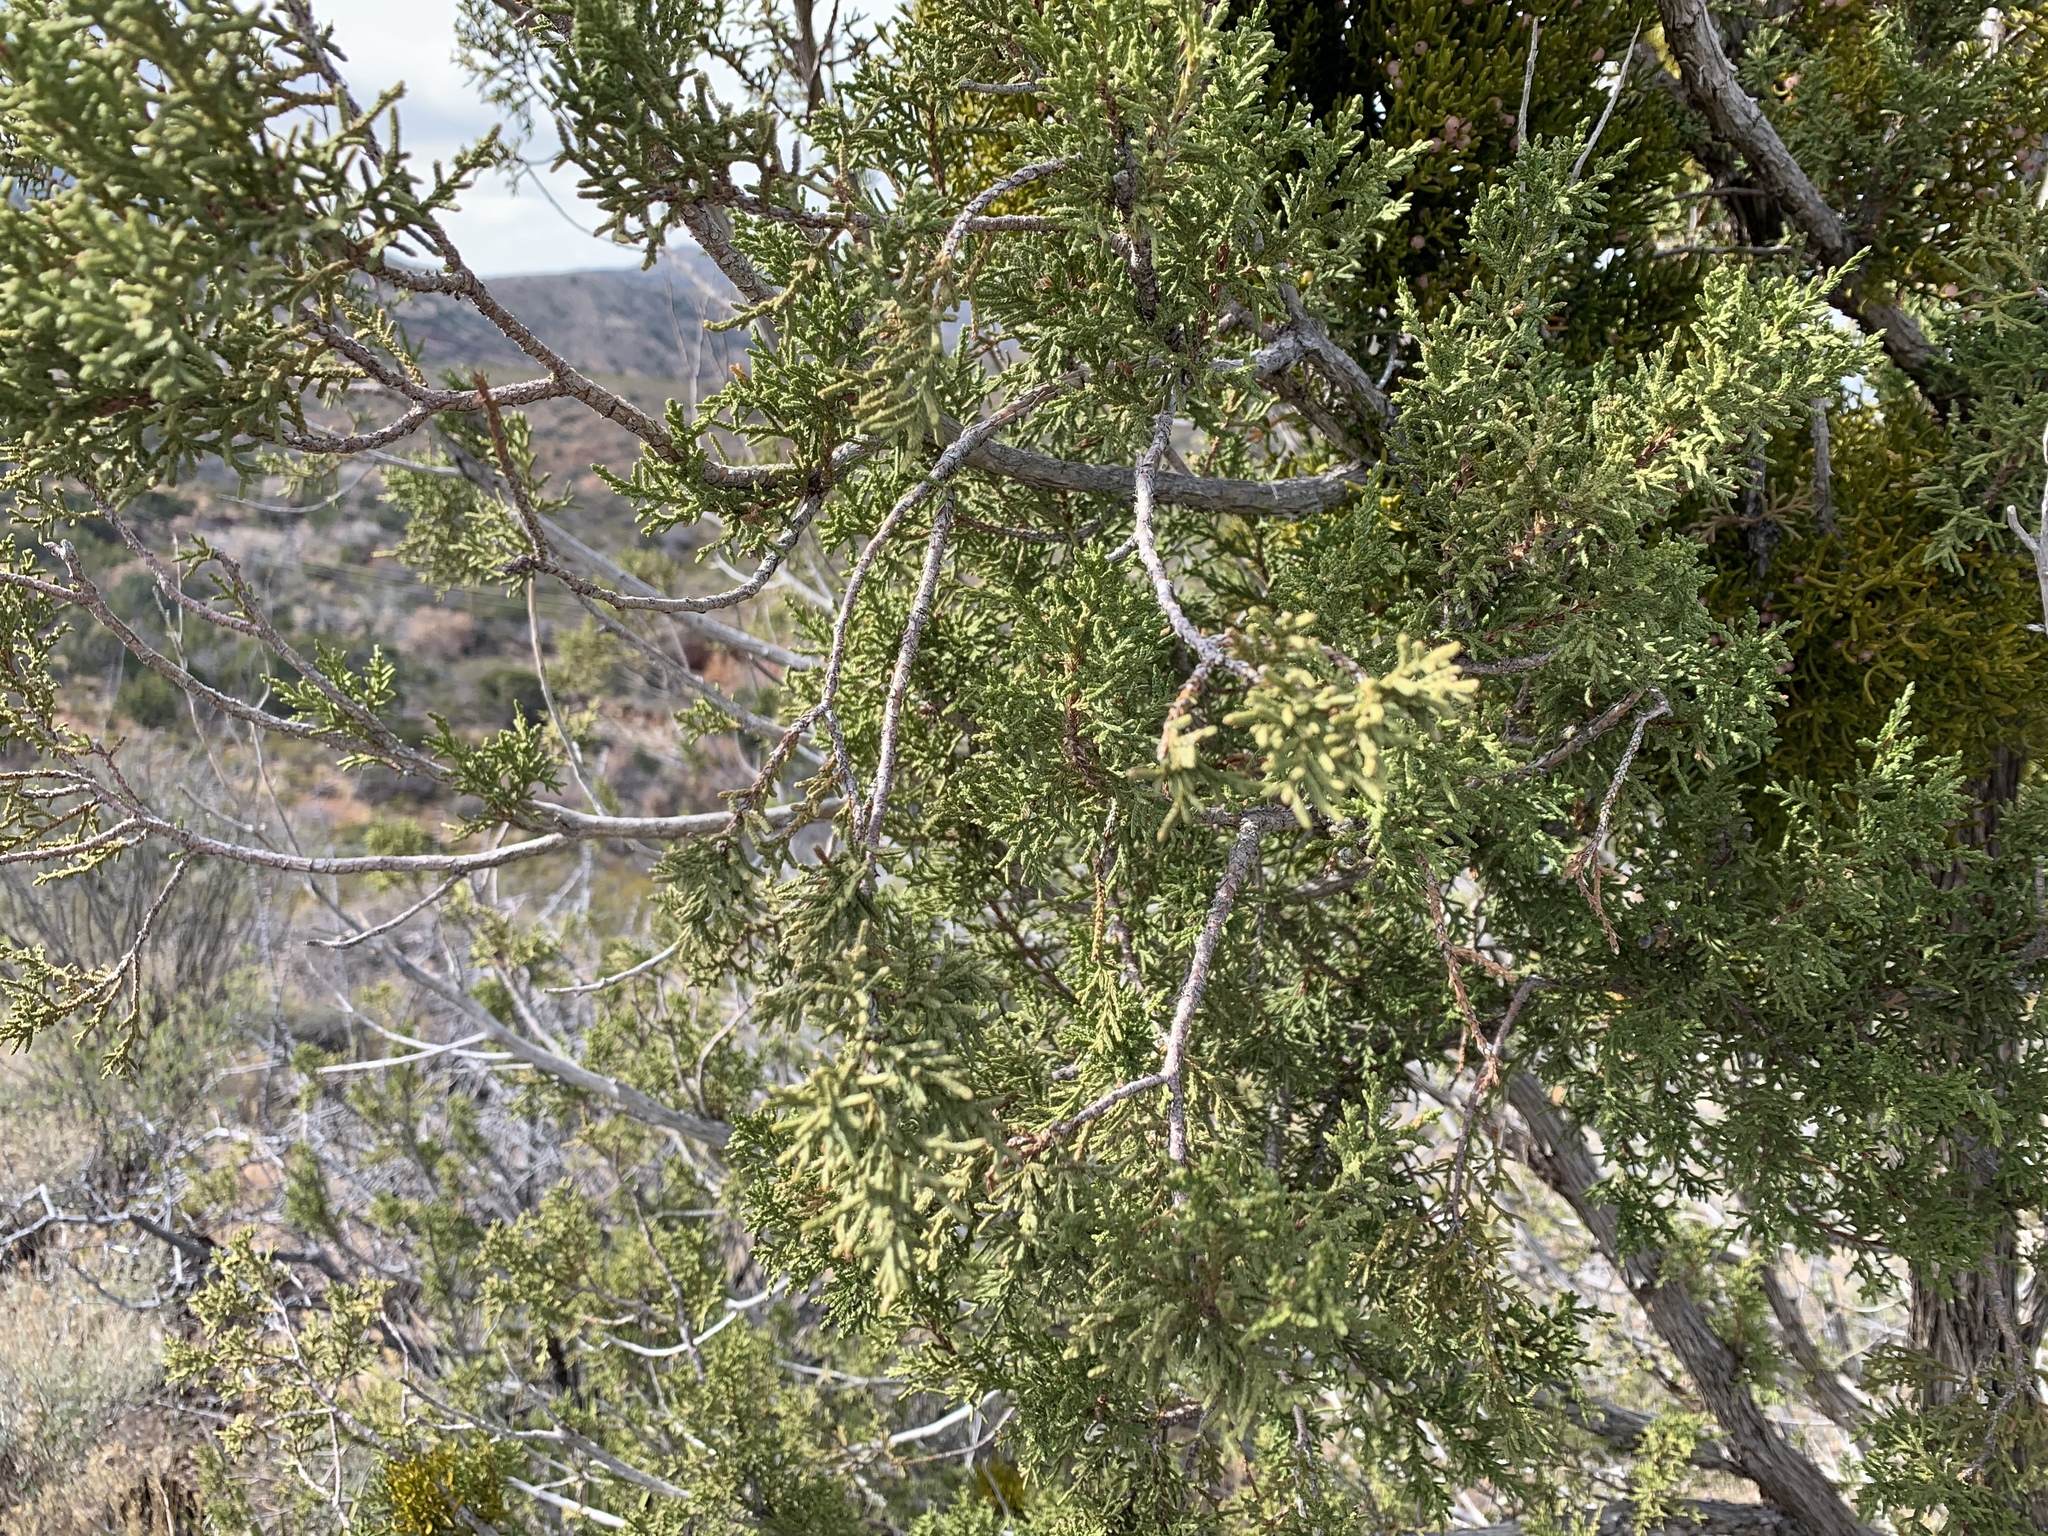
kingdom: Plantae
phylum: Tracheophyta
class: Pinopsida
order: Pinales
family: Cupressaceae
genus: Juniperus
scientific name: Juniperus monosperma
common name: One-seed juniper
